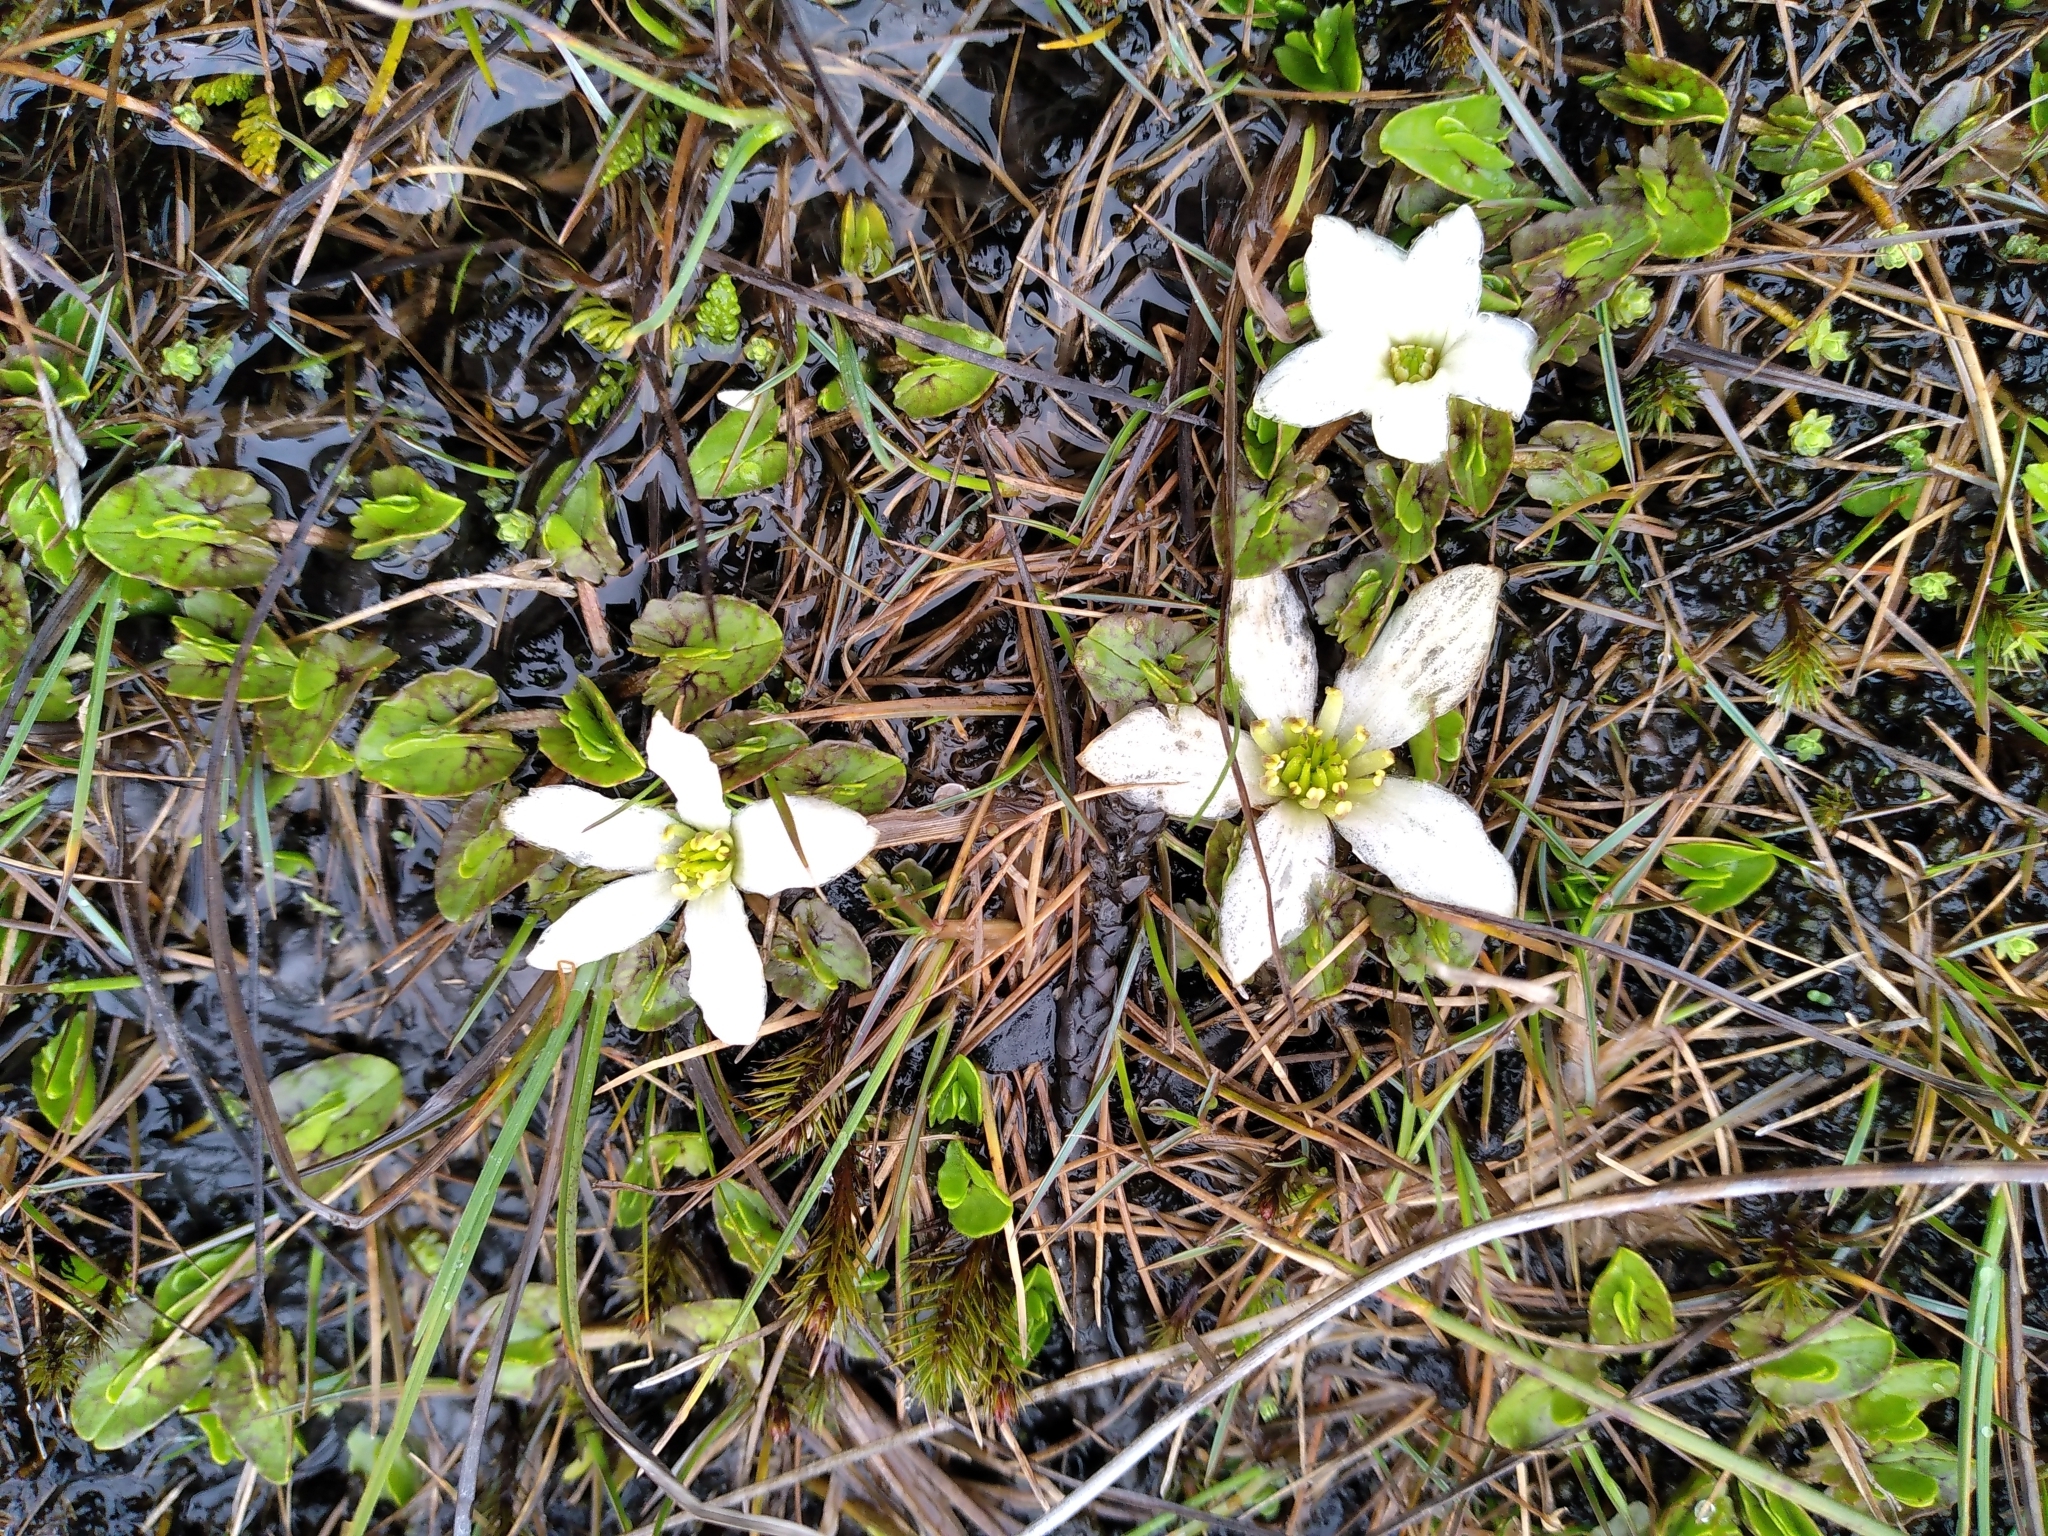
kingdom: Plantae
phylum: Tracheophyta
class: Magnoliopsida
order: Ranunculales
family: Ranunculaceae
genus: Caltha
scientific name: Caltha obtusa
